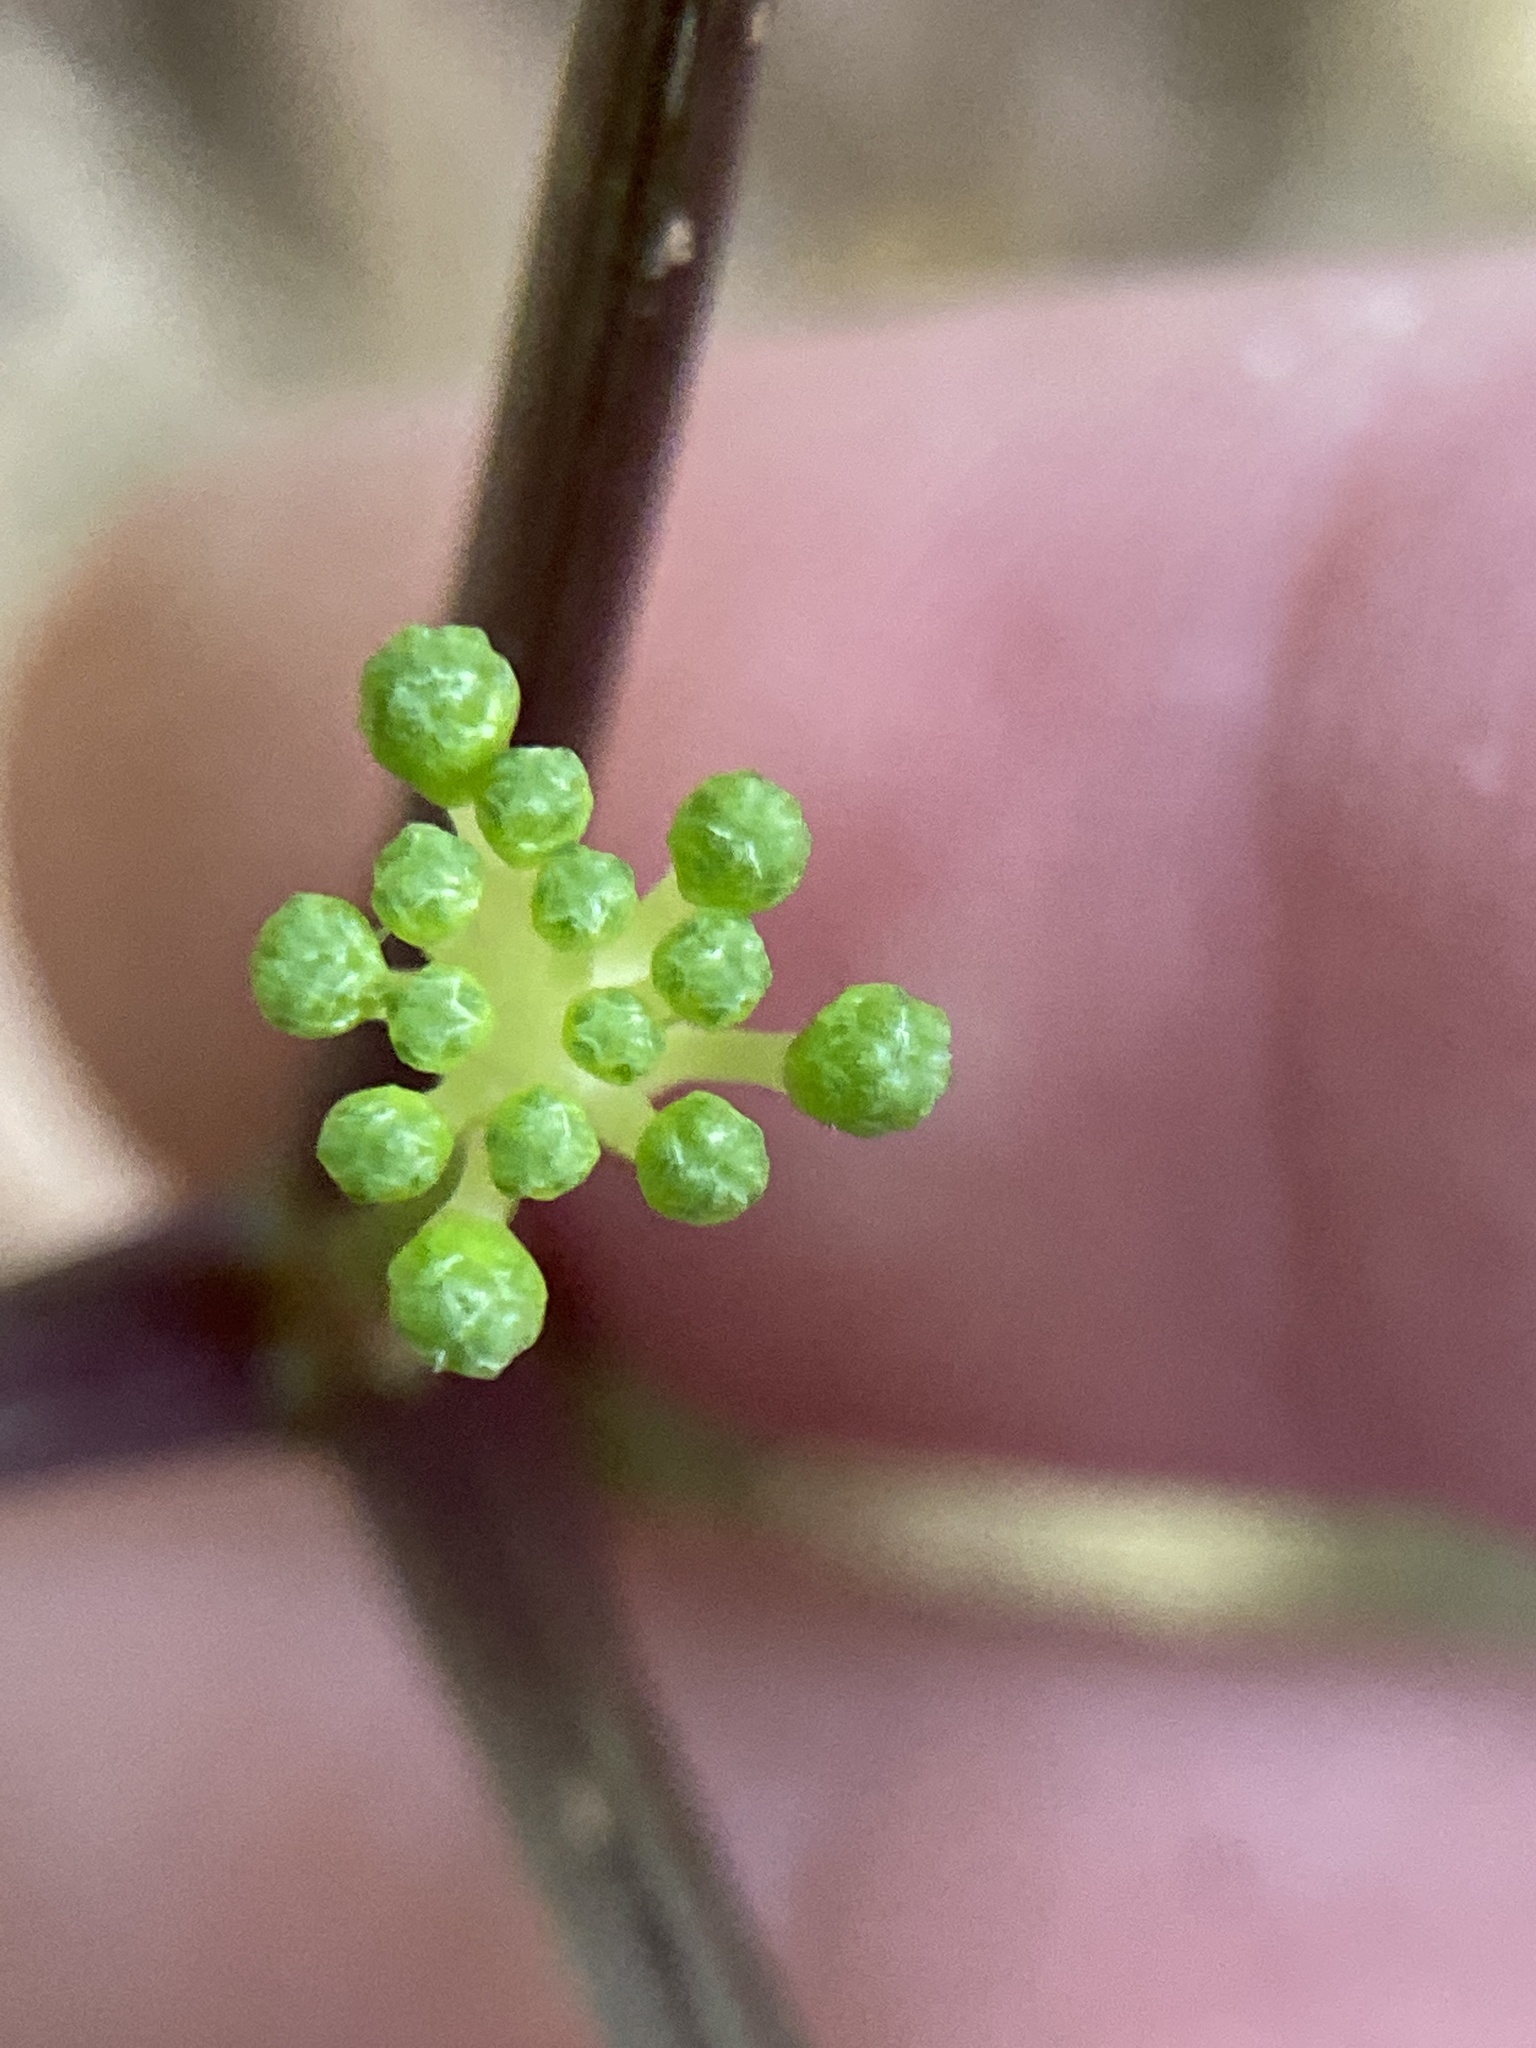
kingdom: Plantae
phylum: Tracheophyta
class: Magnoliopsida
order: Apiales
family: Araliaceae
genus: Panax
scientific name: Panax quinquefolius
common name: American ginseng
